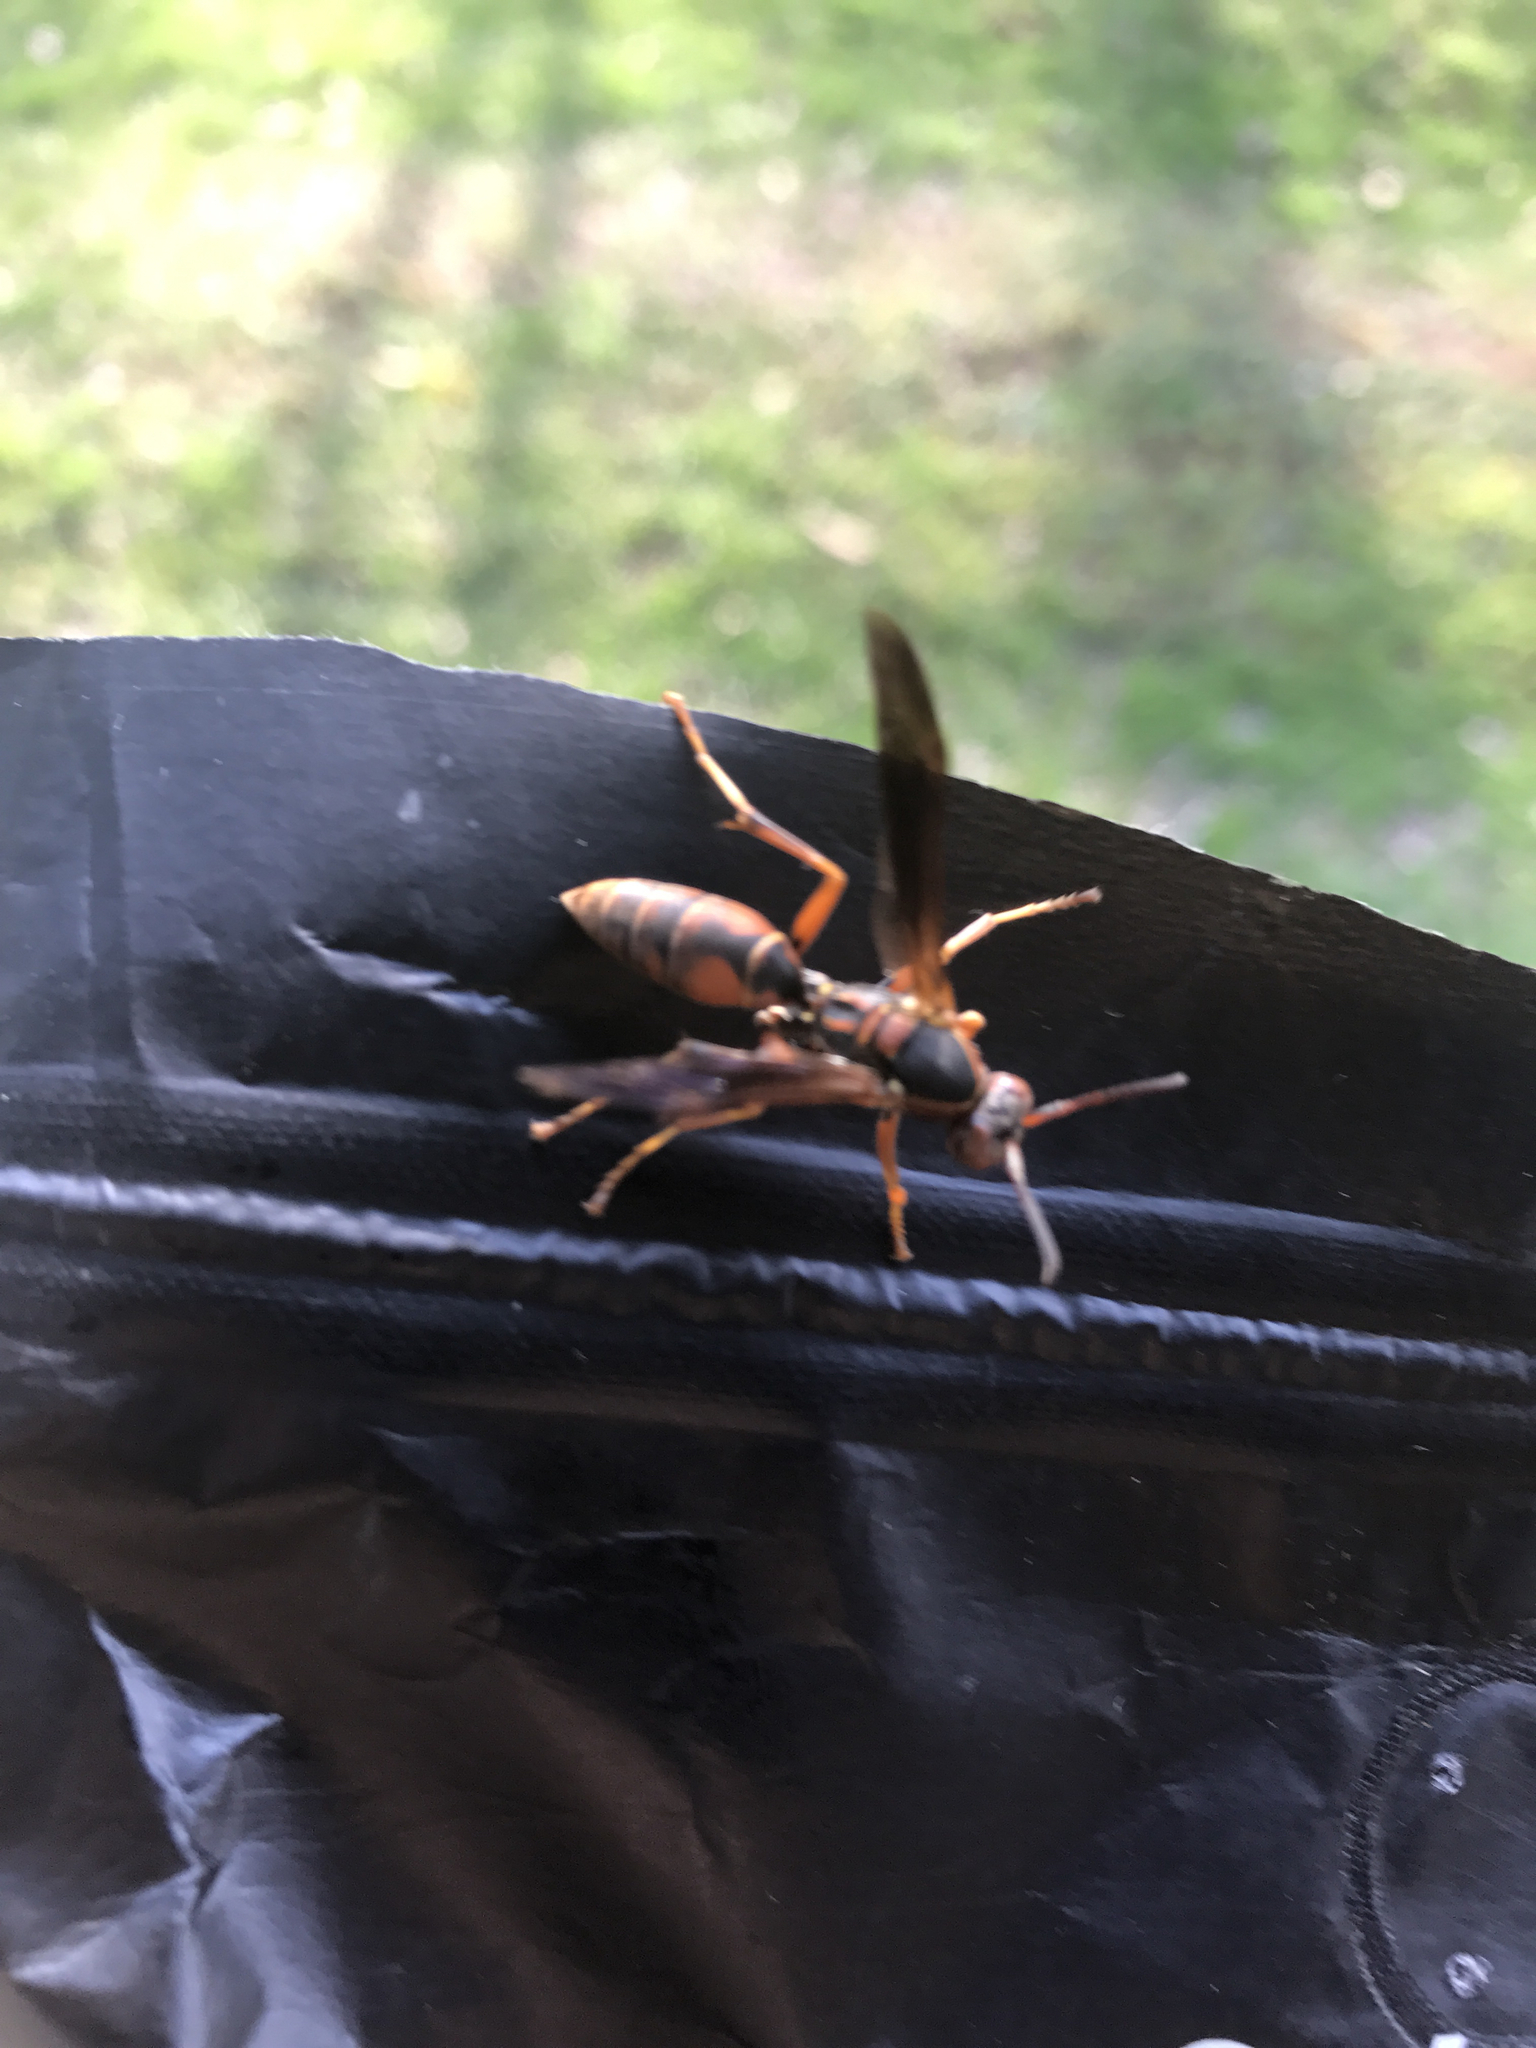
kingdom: Animalia
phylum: Arthropoda
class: Insecta
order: Hymenoptera
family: Eumenidae
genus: Polistes
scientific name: Polistes fuscatus
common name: Dark paper wasp
